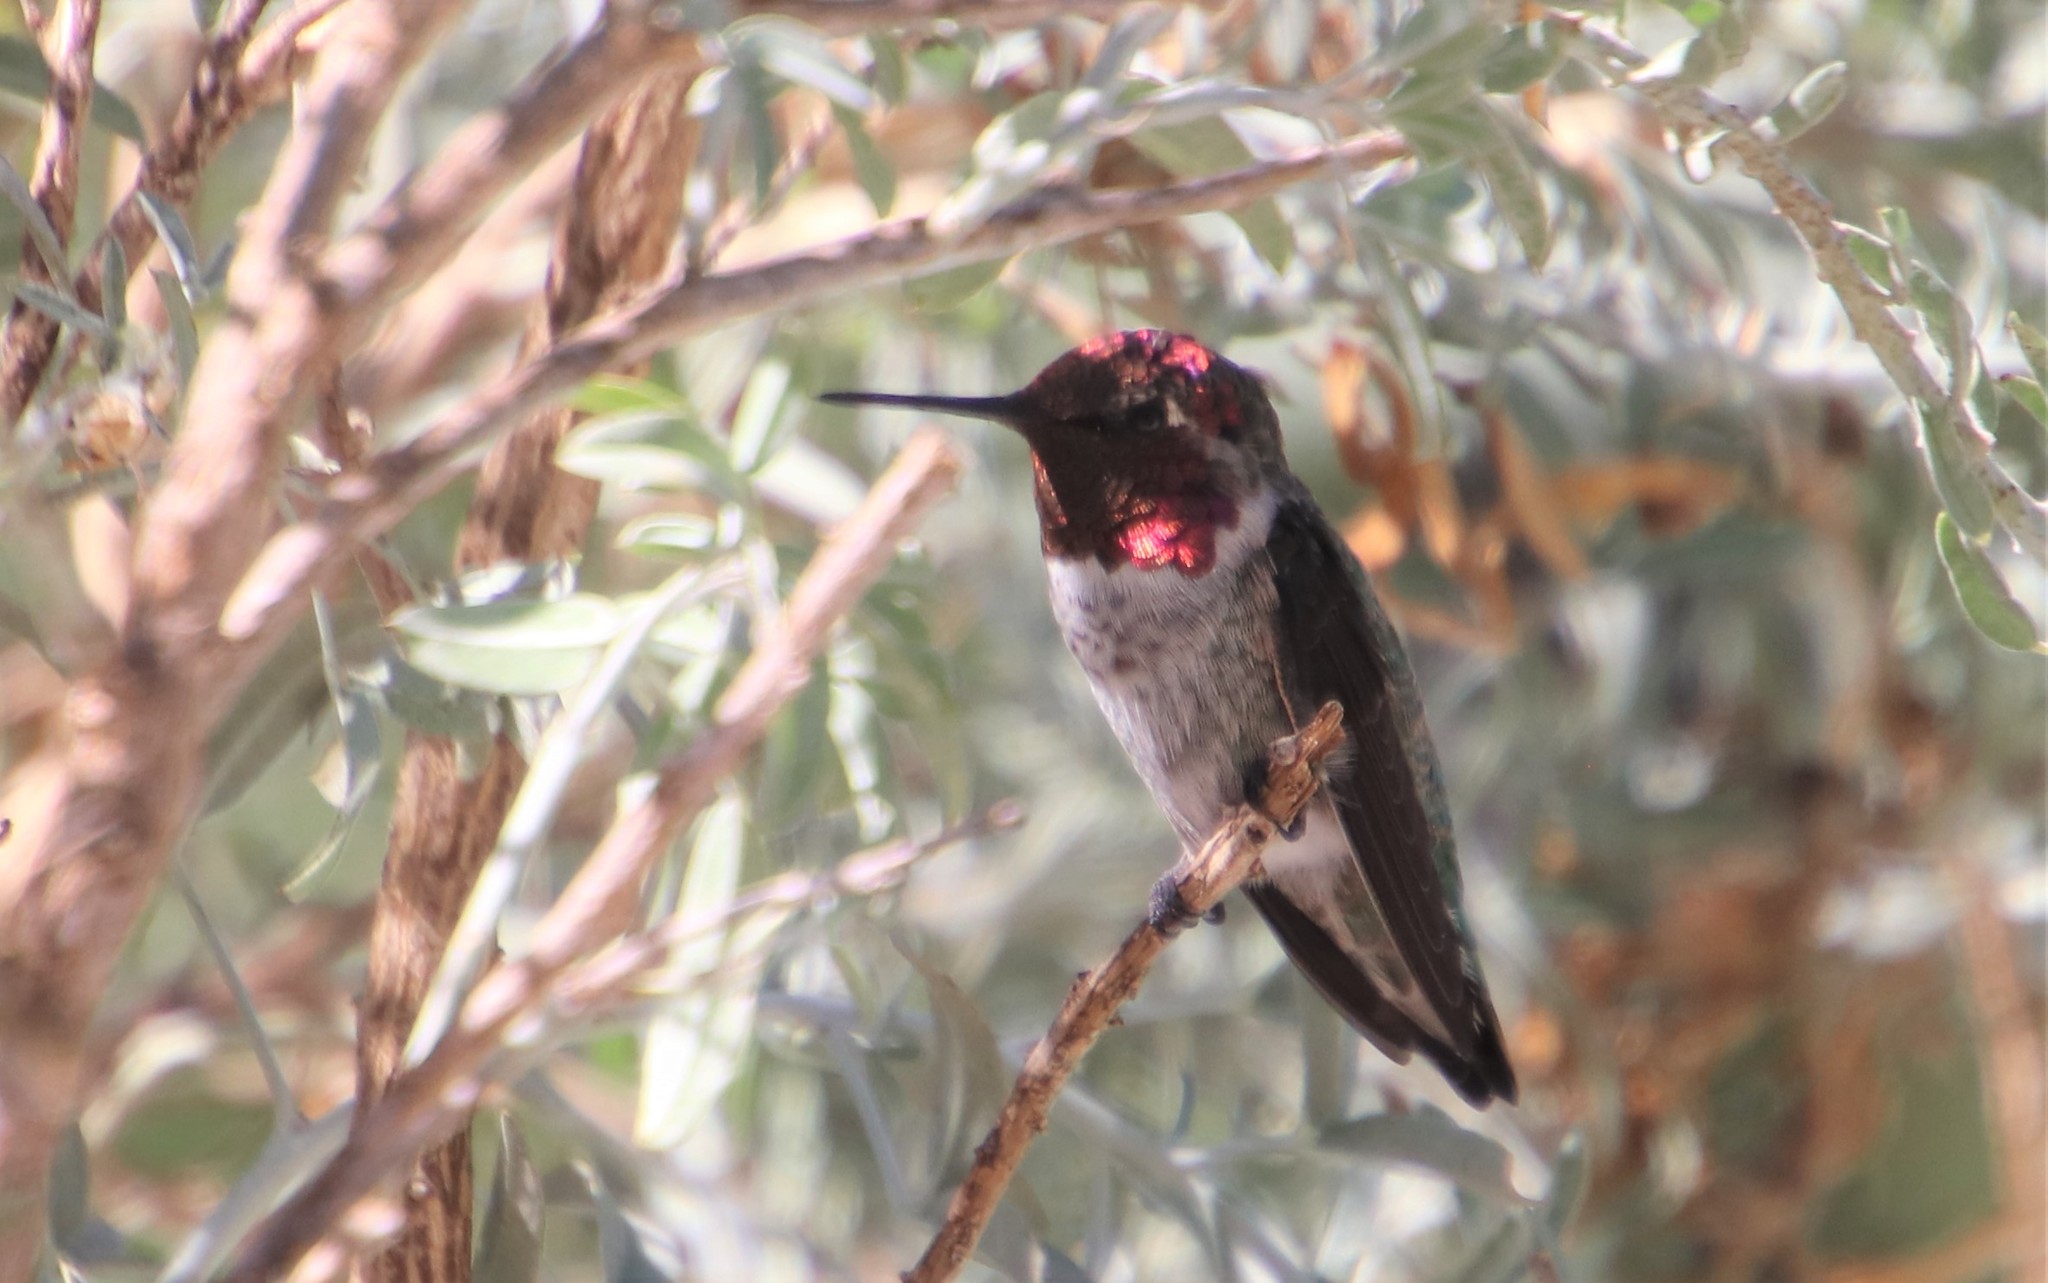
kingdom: Animalia
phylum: Chordata
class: Aves
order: Apodiformes
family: Trochilidae
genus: Calypte
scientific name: Calypte anna
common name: Anna's hummingbird
